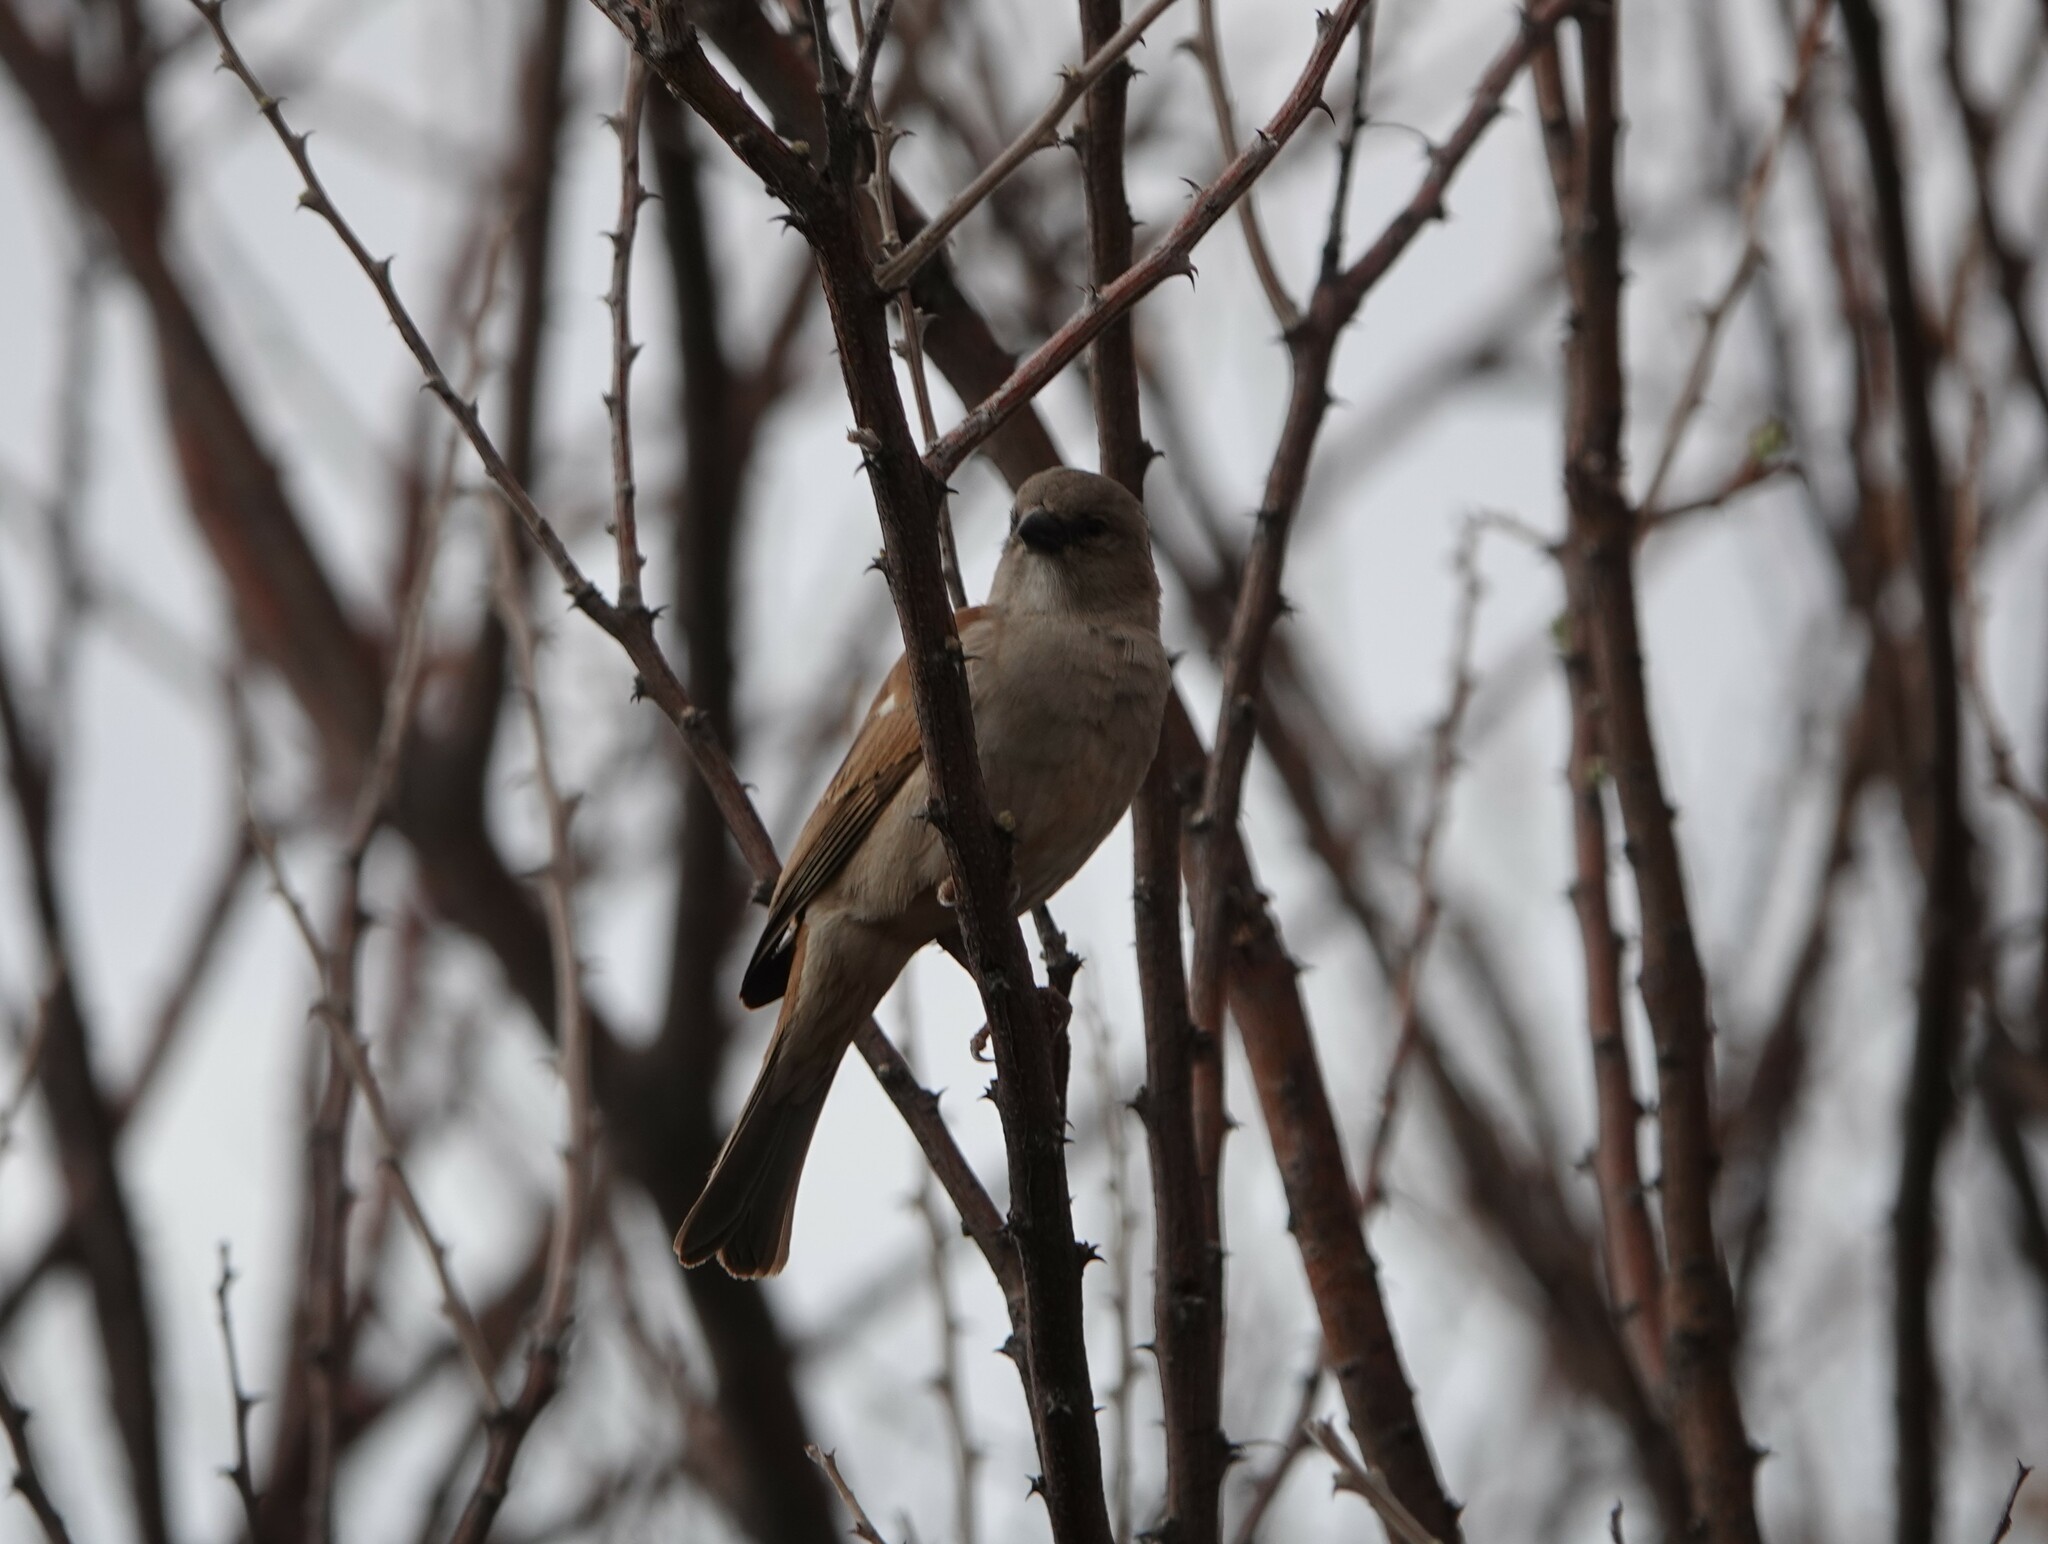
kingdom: Animalia
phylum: Chordata
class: Aves
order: Passeriformes
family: Passeridae
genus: Passer
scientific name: Passer diffusus
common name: Southern grey-headed sparrow
